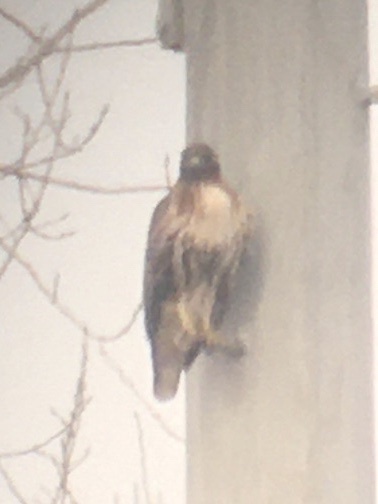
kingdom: Animalia
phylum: Chordata
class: Aves
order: Accipitriformes
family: Accipitridae
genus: Buteo
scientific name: Buteo jamaicensis
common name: Red-tailed hawk
